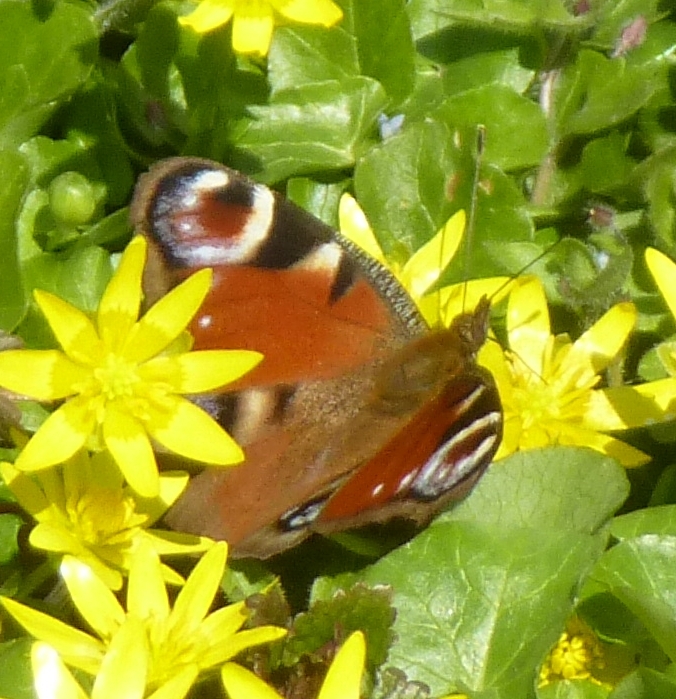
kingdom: Animalia
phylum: Arthropoda
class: Insecta
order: Lepidoptera
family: Nymphalidae
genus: Aglais
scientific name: Aglais io
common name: Peacock
